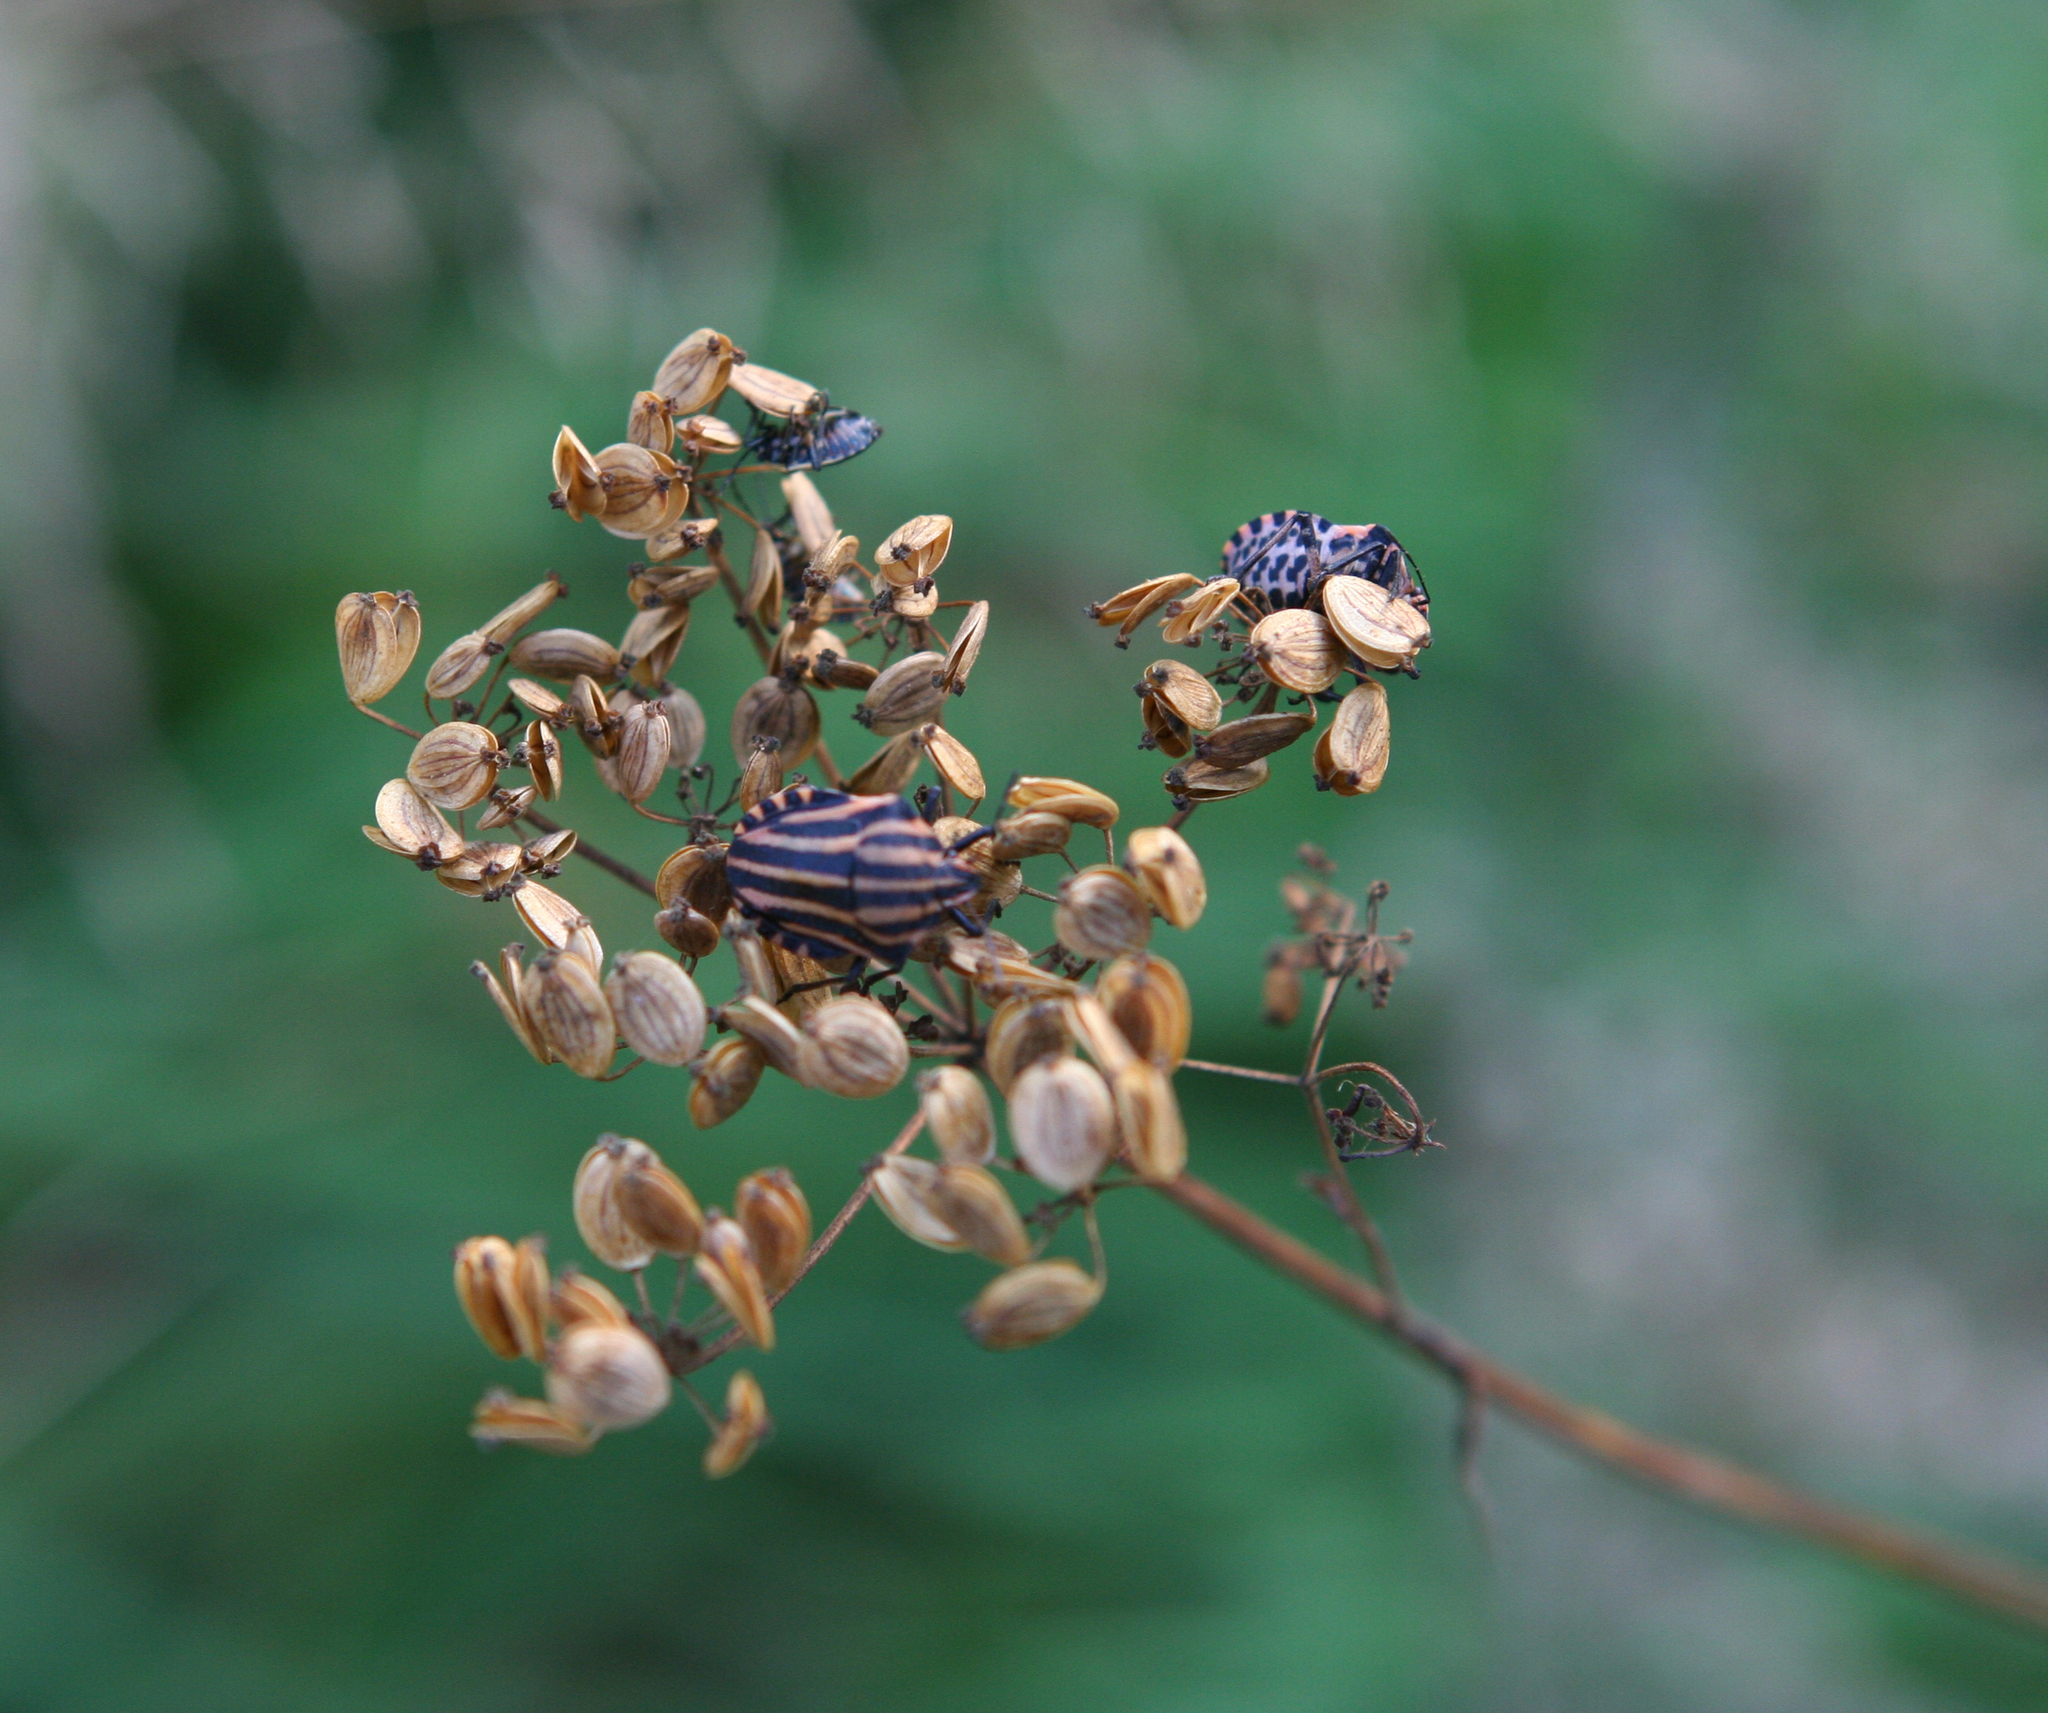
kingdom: Animalia
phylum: Arthropoda
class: Insecta
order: Hemiptera
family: Pentatomidae
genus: Graphosoma
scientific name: Graphosoma italicum
